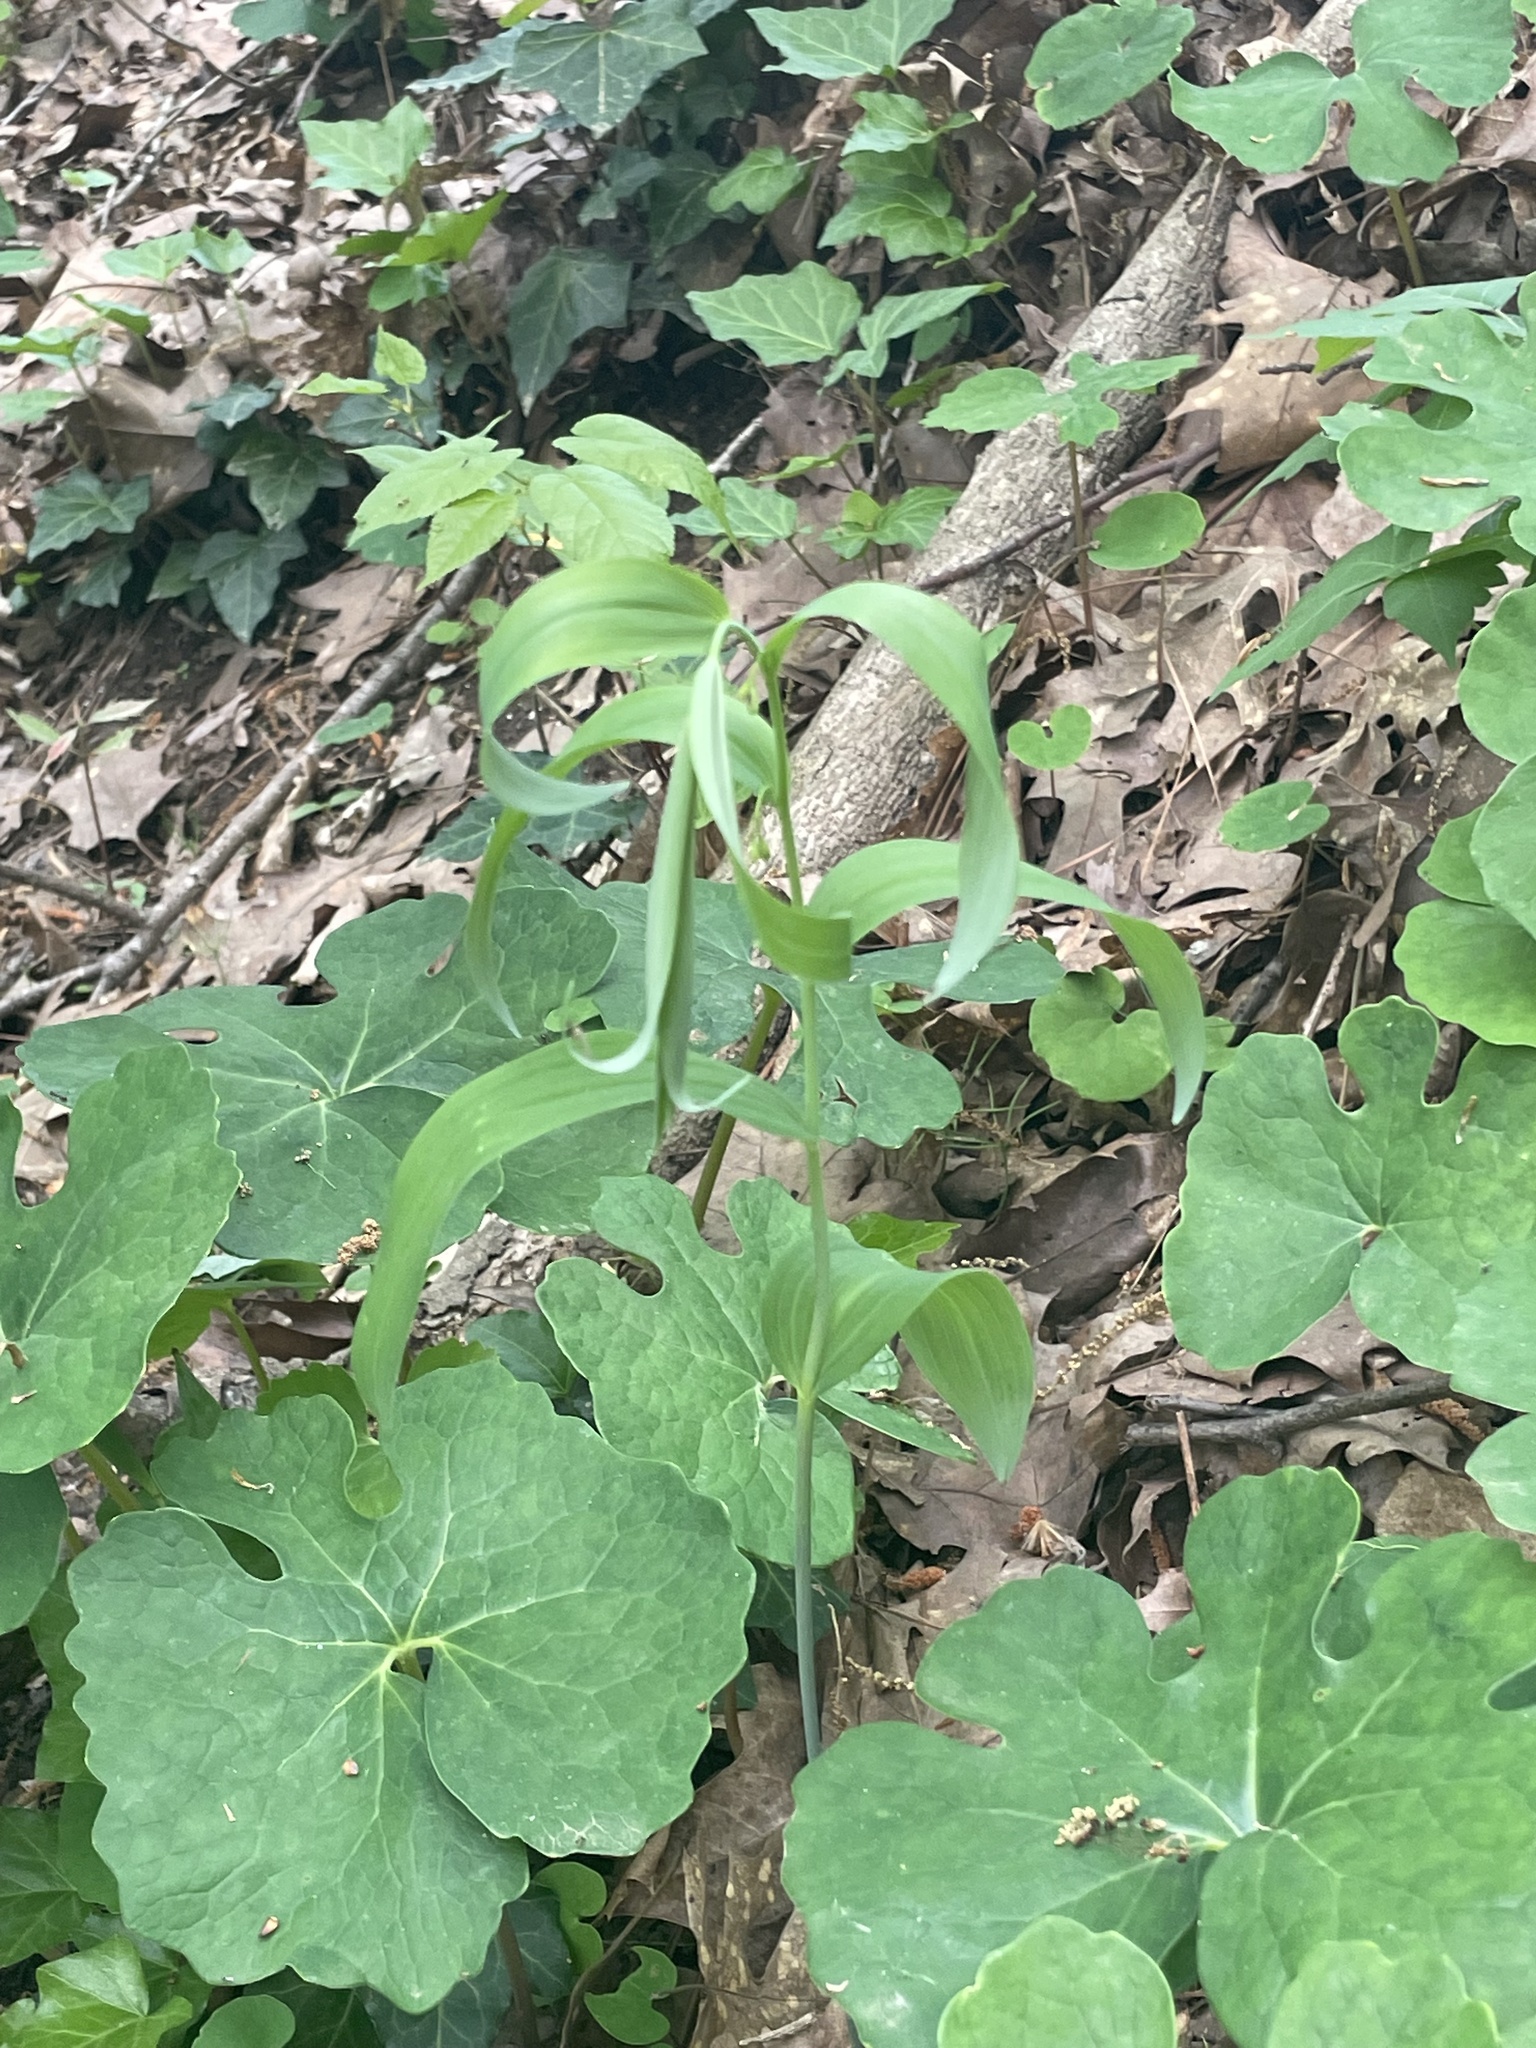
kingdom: Plantae
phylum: Tracheophyta
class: Magnoliopsida
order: Ranunculales
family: Papaveraceae
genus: Sanguinaria
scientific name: Sanguinaria canadensis
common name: Bloodroot
